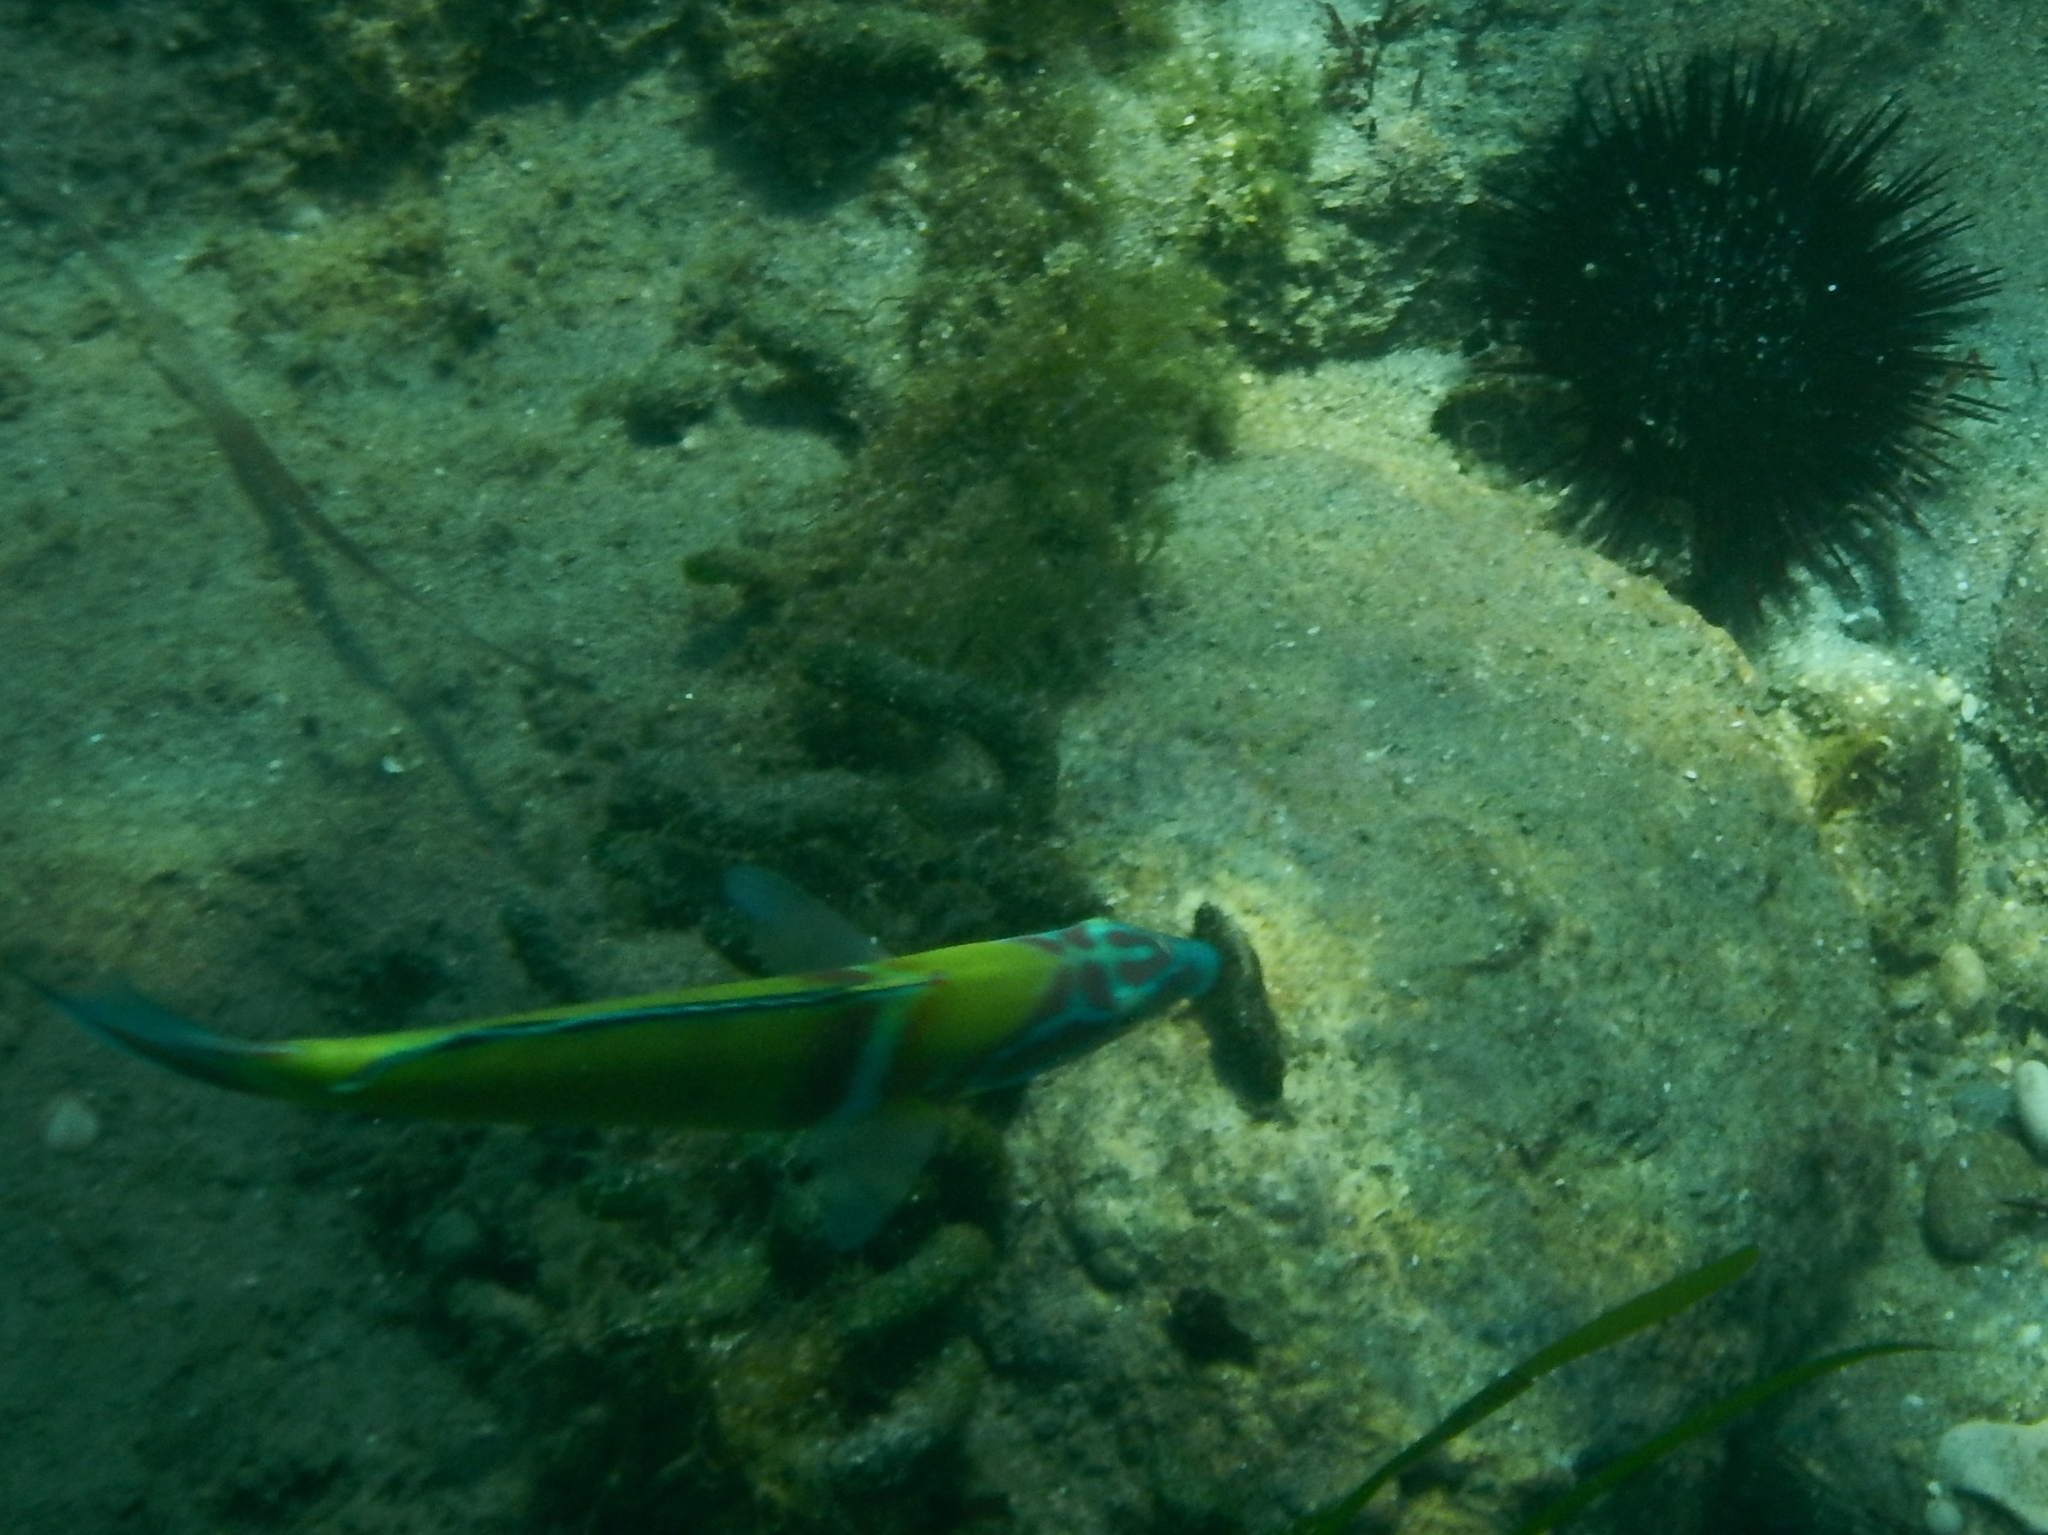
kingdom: Animalia
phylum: Chordata
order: Perciformes
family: Labridae
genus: Thalassoma
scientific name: Thalassoma pavo
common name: Ornate wrasse
